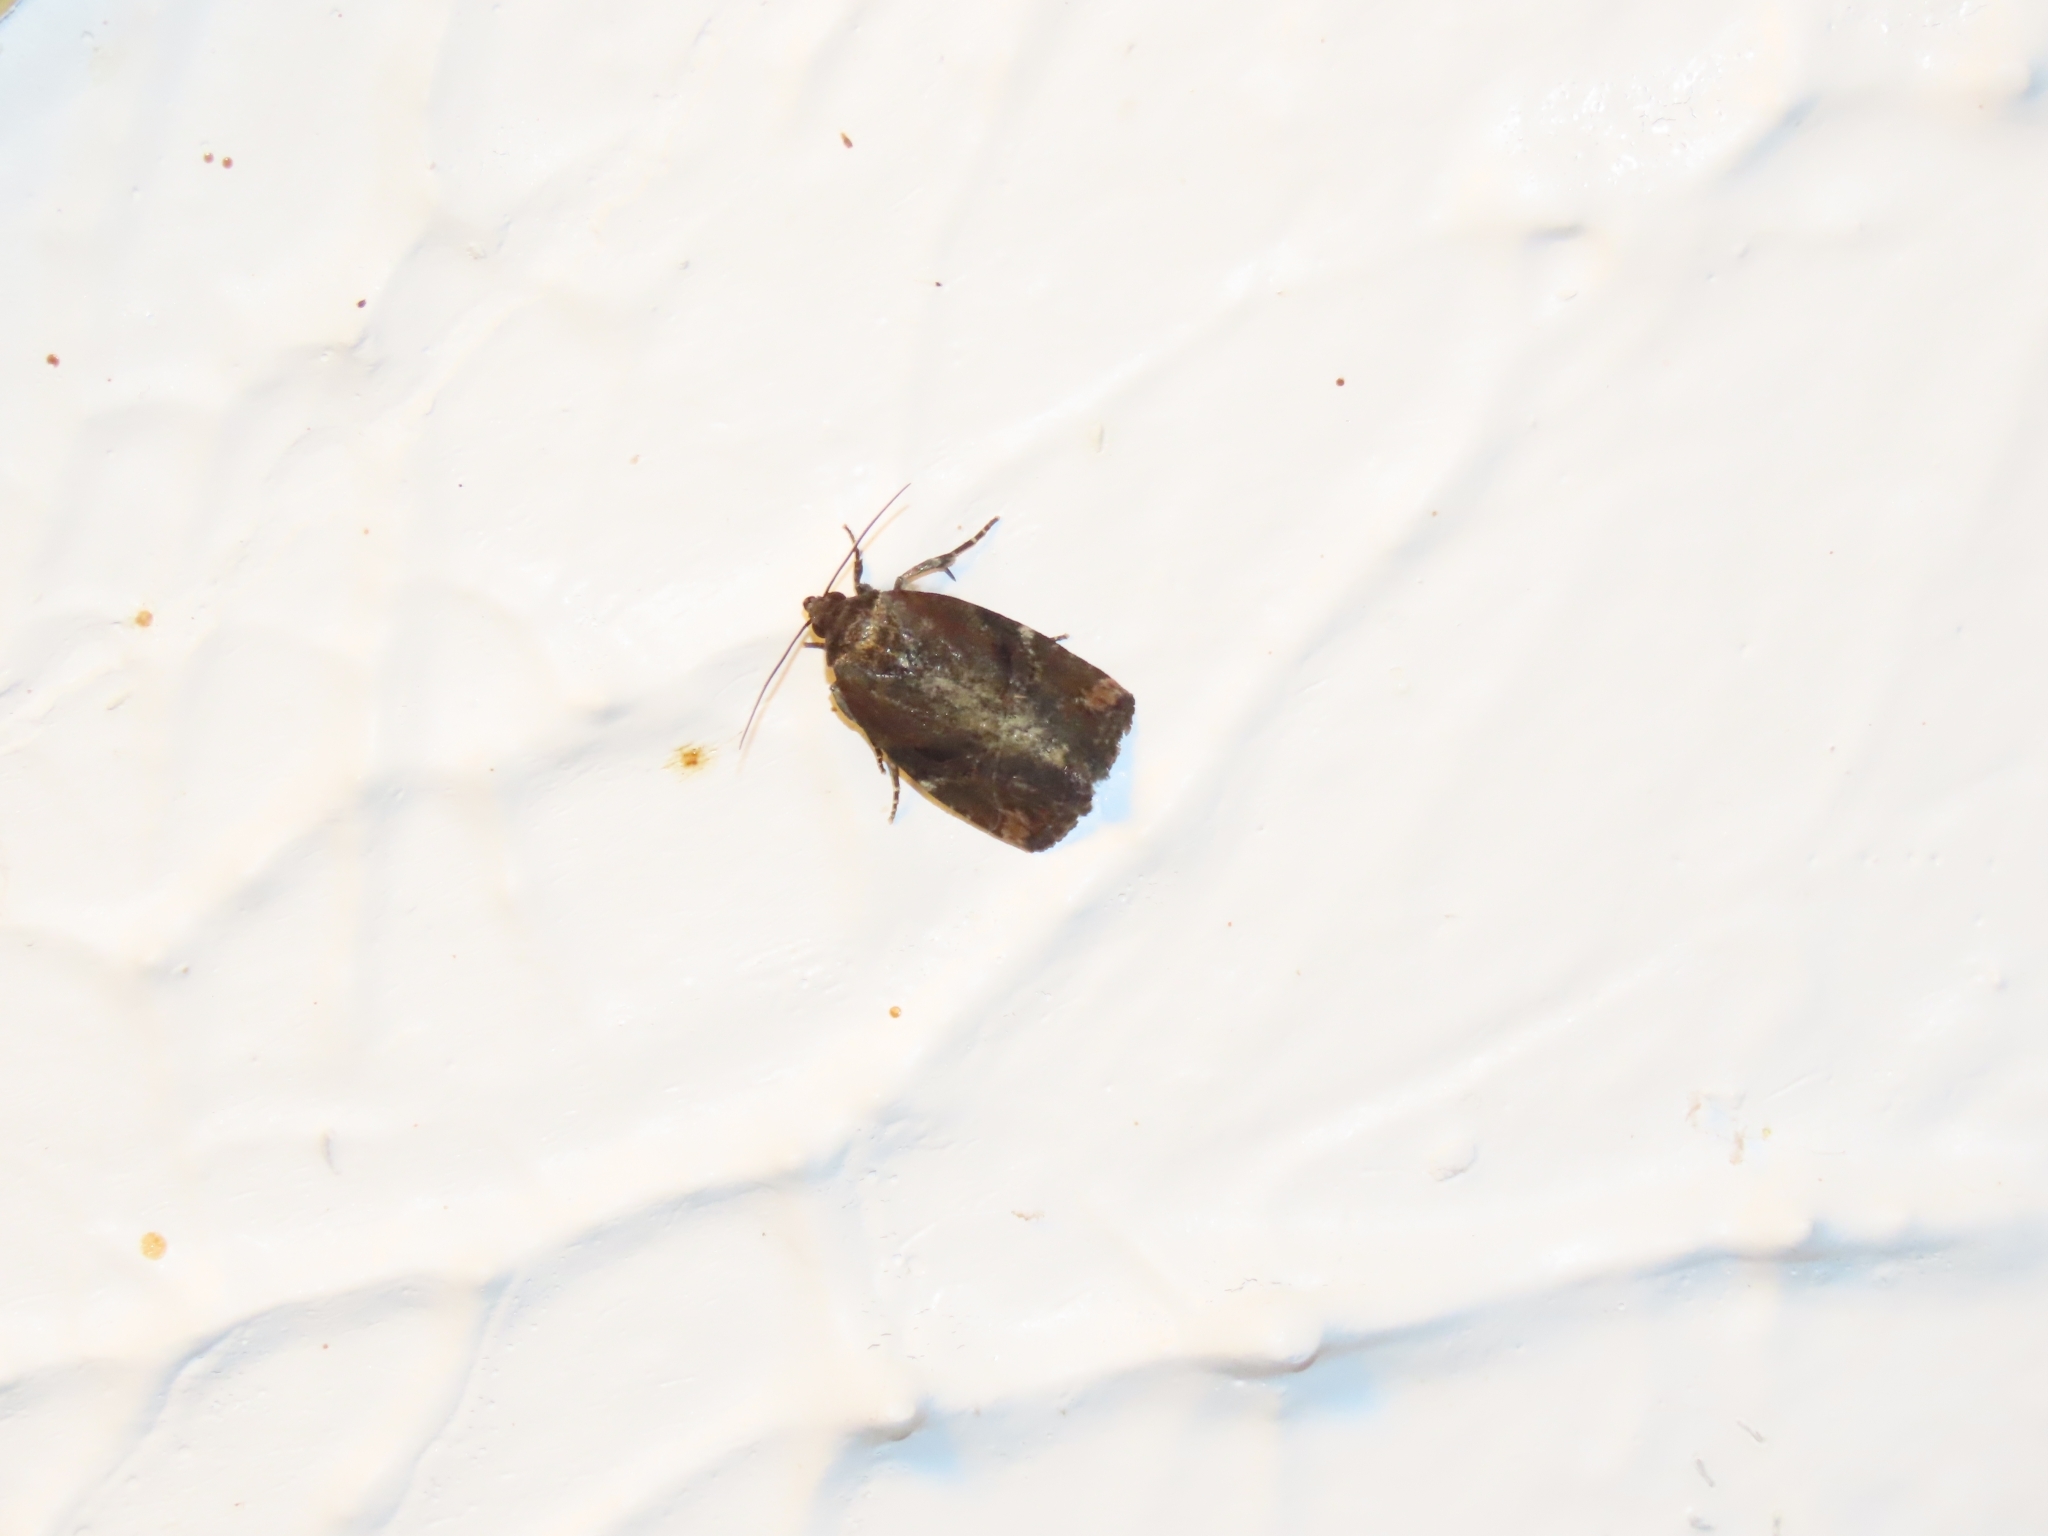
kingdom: Animalia
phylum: Arthropoda
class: Insecta
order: Lepidoptera
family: Noctuidae
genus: Elaphria
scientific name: Elaphria versicolor
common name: Fir harlequin
